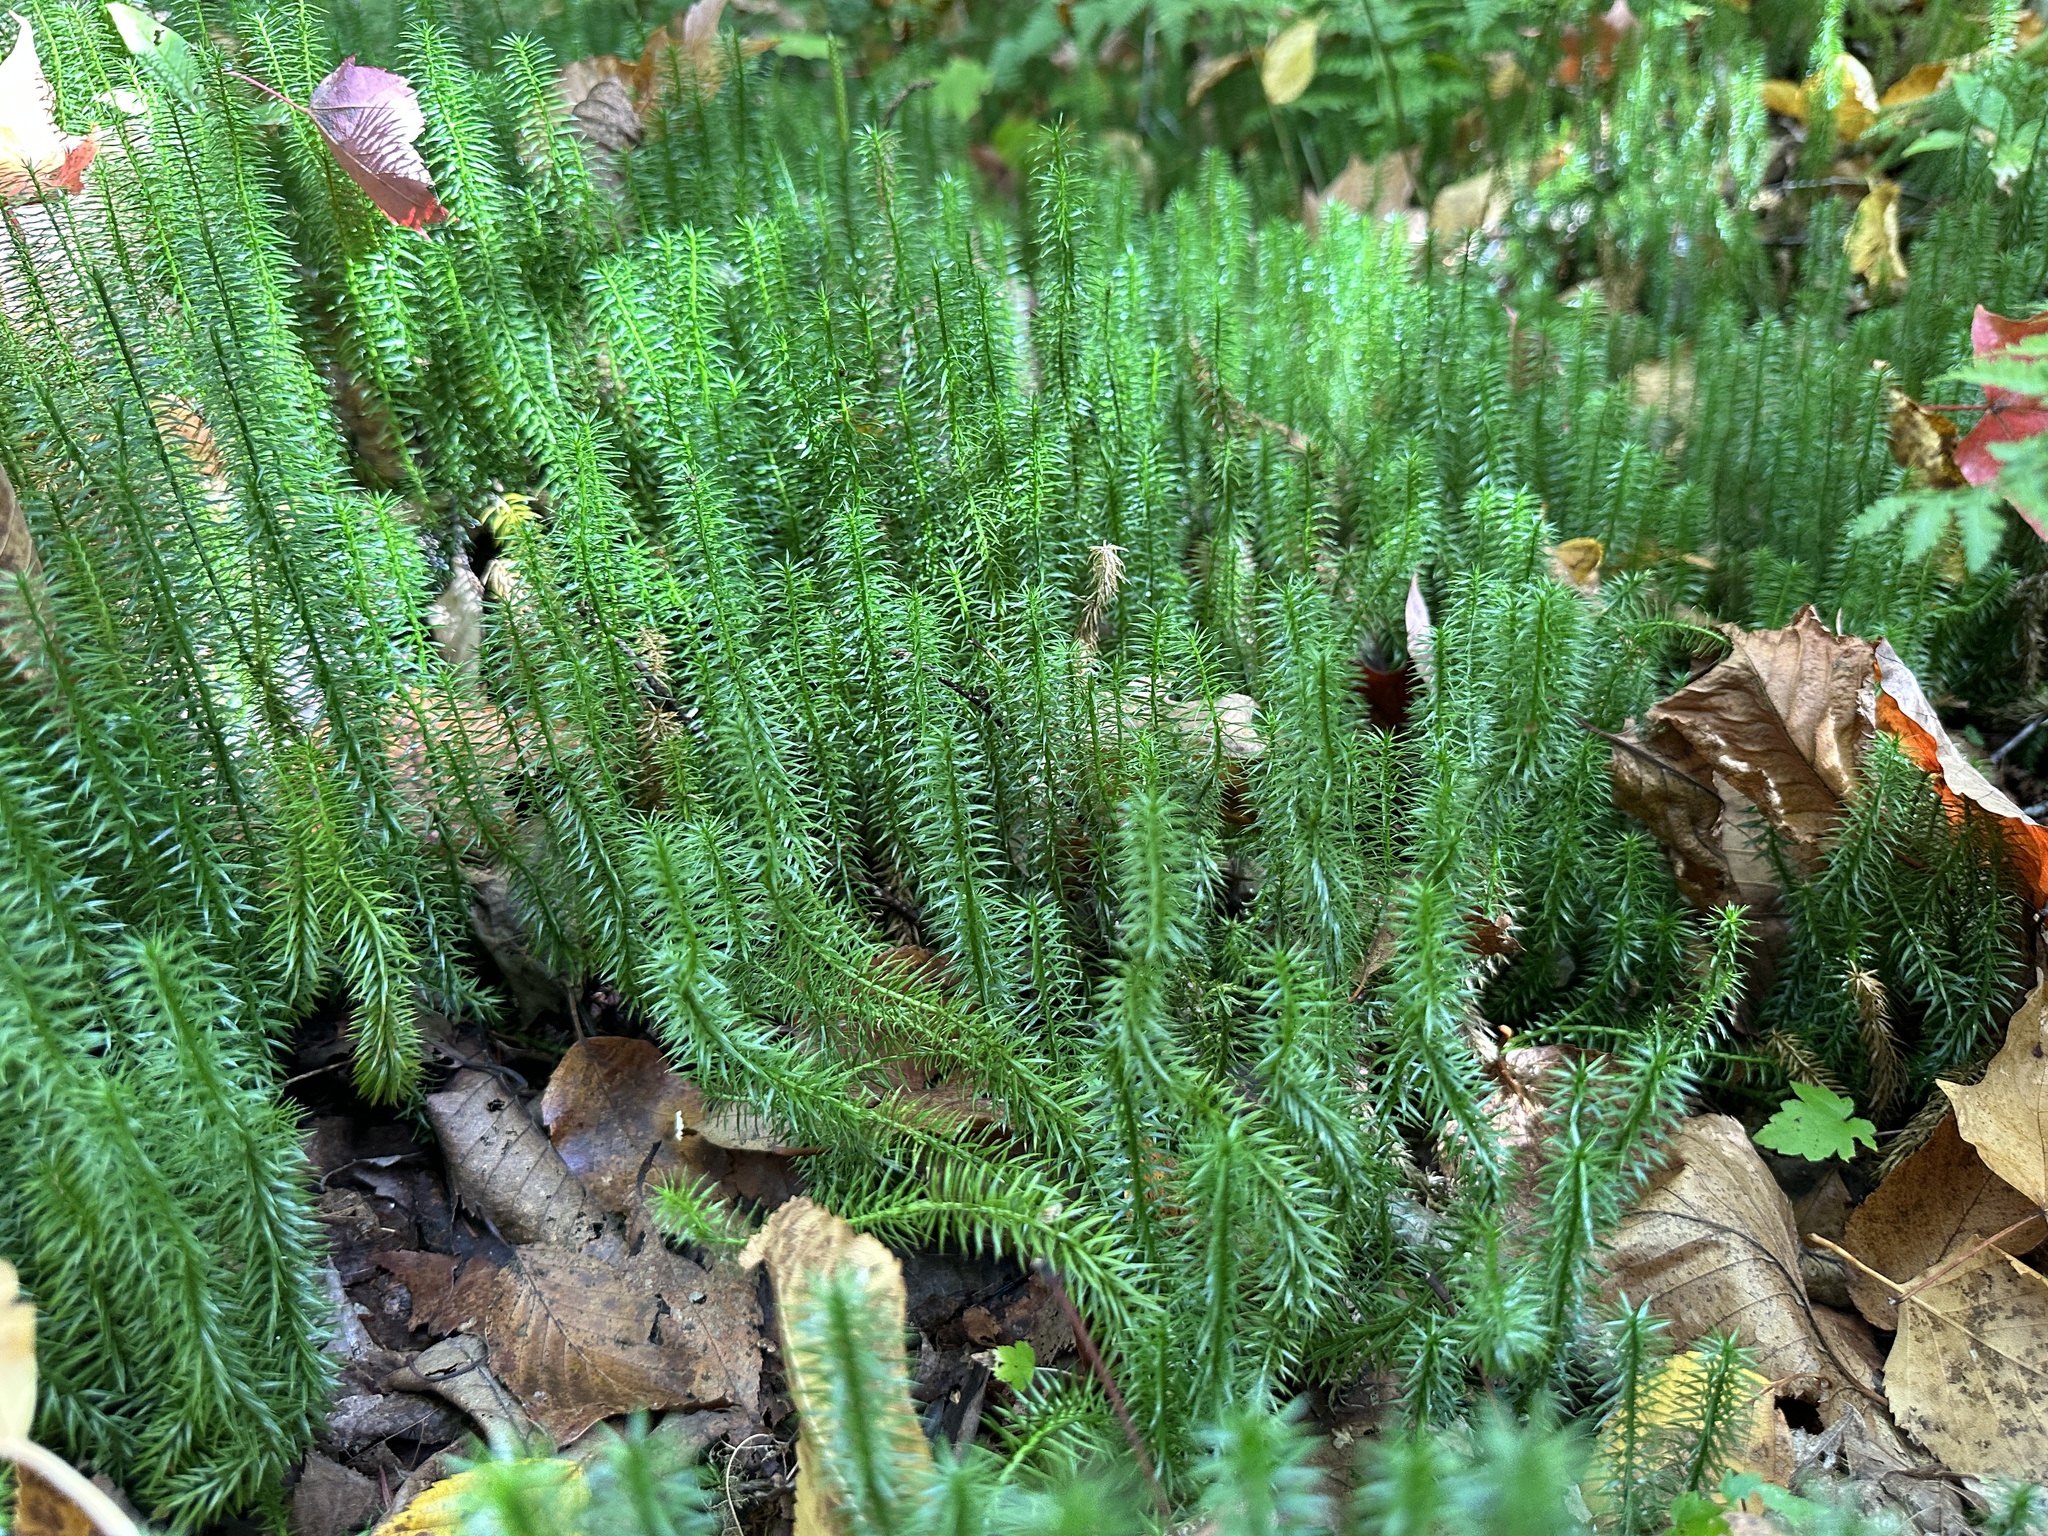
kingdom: Plantae
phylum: Tracheophyta
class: Lycopodiopsida
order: Lycopodiales
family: Lycopodiaceae
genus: Spinulum
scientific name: Spinulum annotinum
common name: Interrupted club-moss
